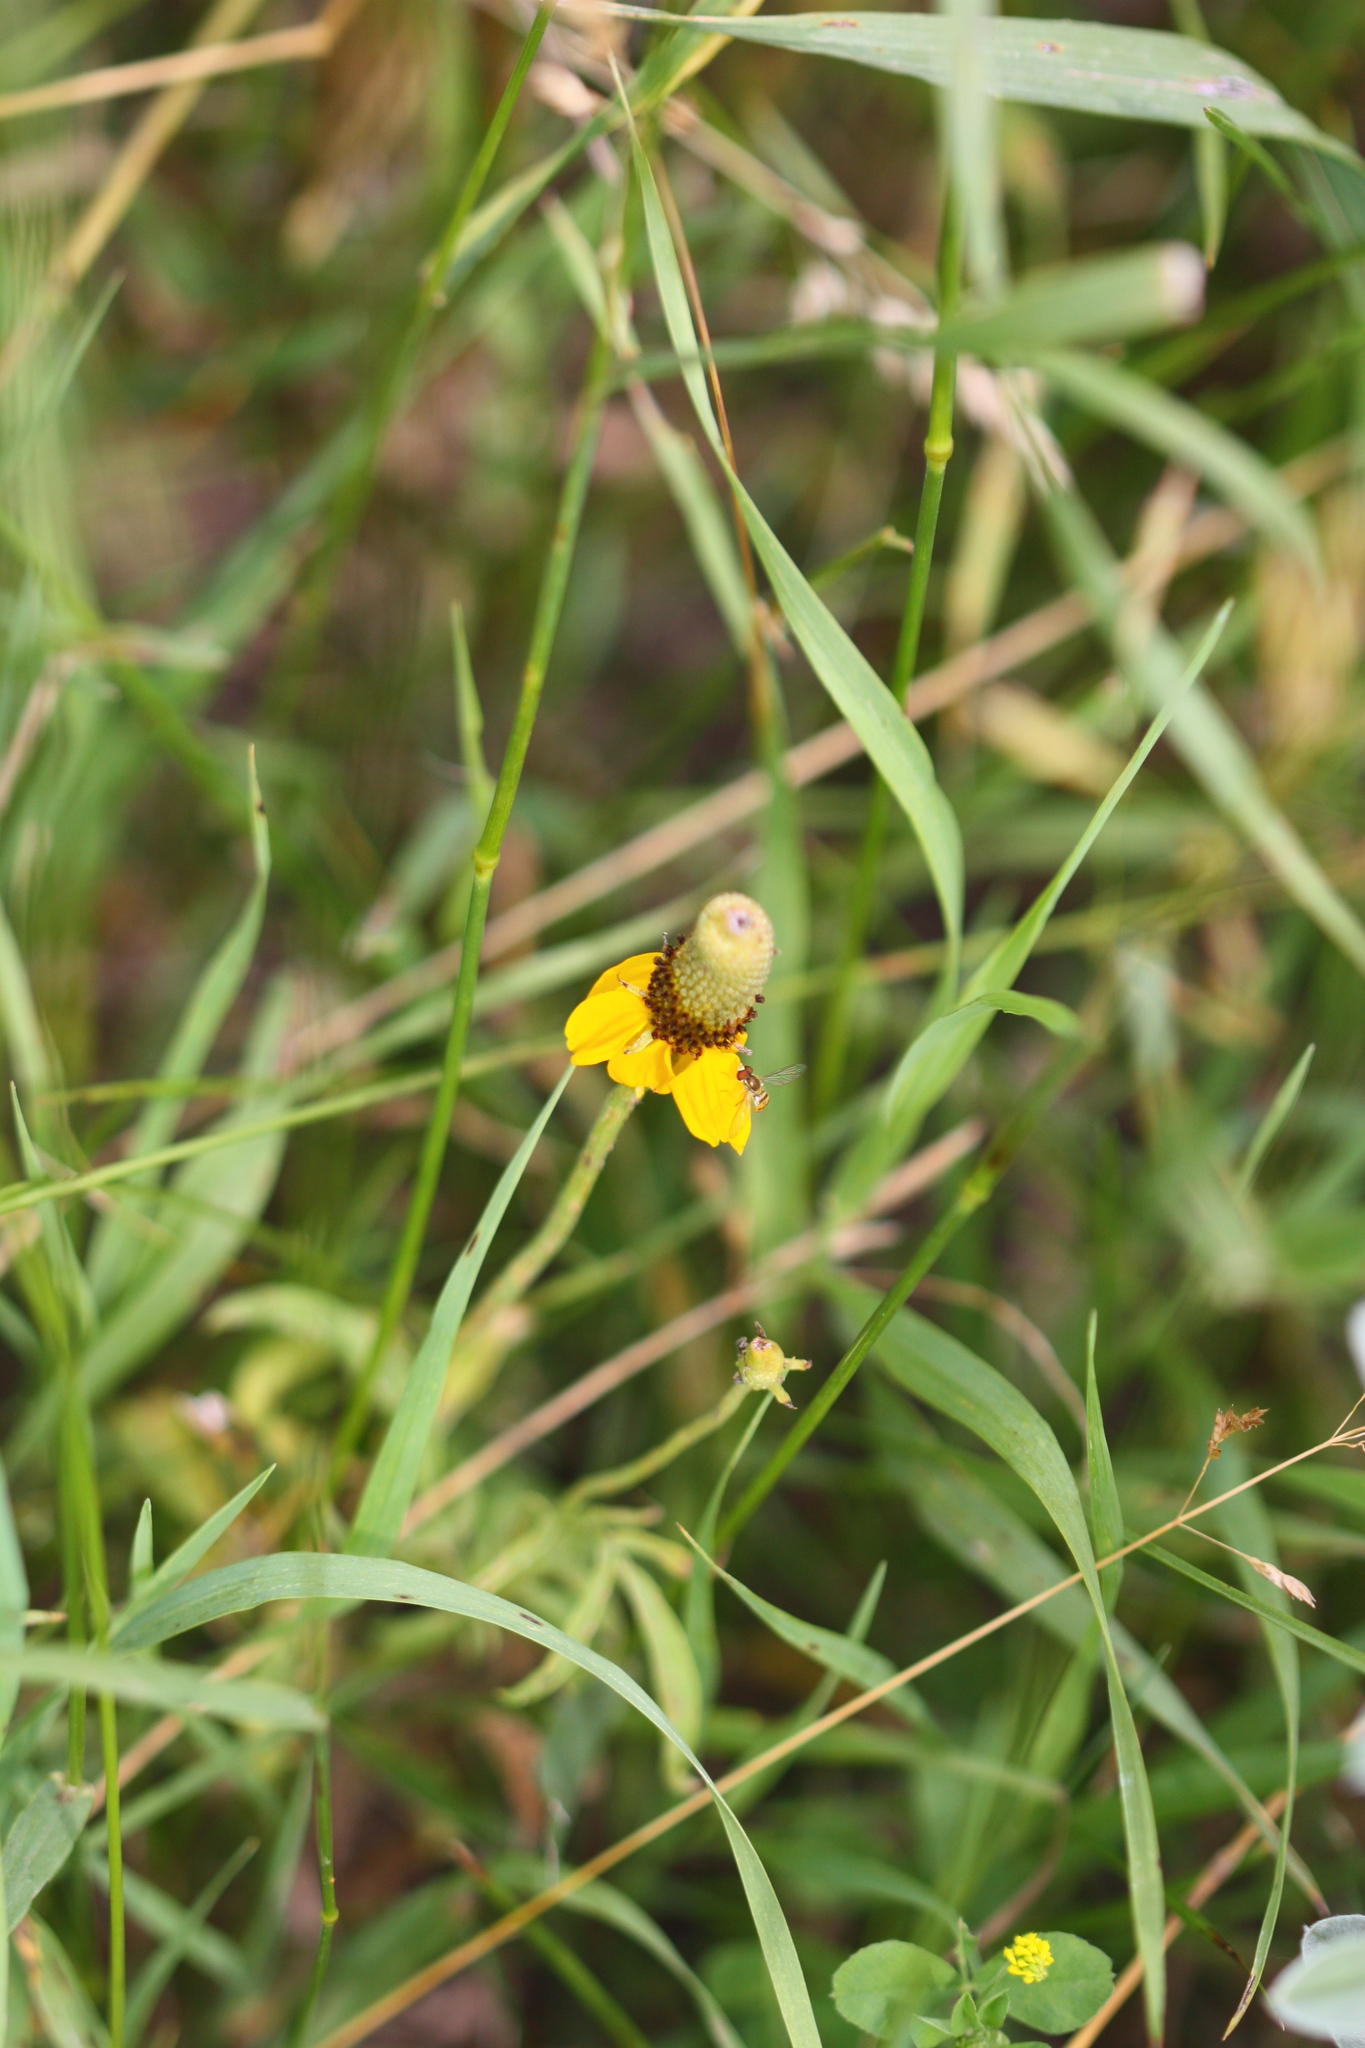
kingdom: Plantae
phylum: Tracheophyta
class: Magnoliopsida
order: Asterales
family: Asteraceae
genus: Ratibida
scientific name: Ratibida columnifera
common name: Prairie coneflower
